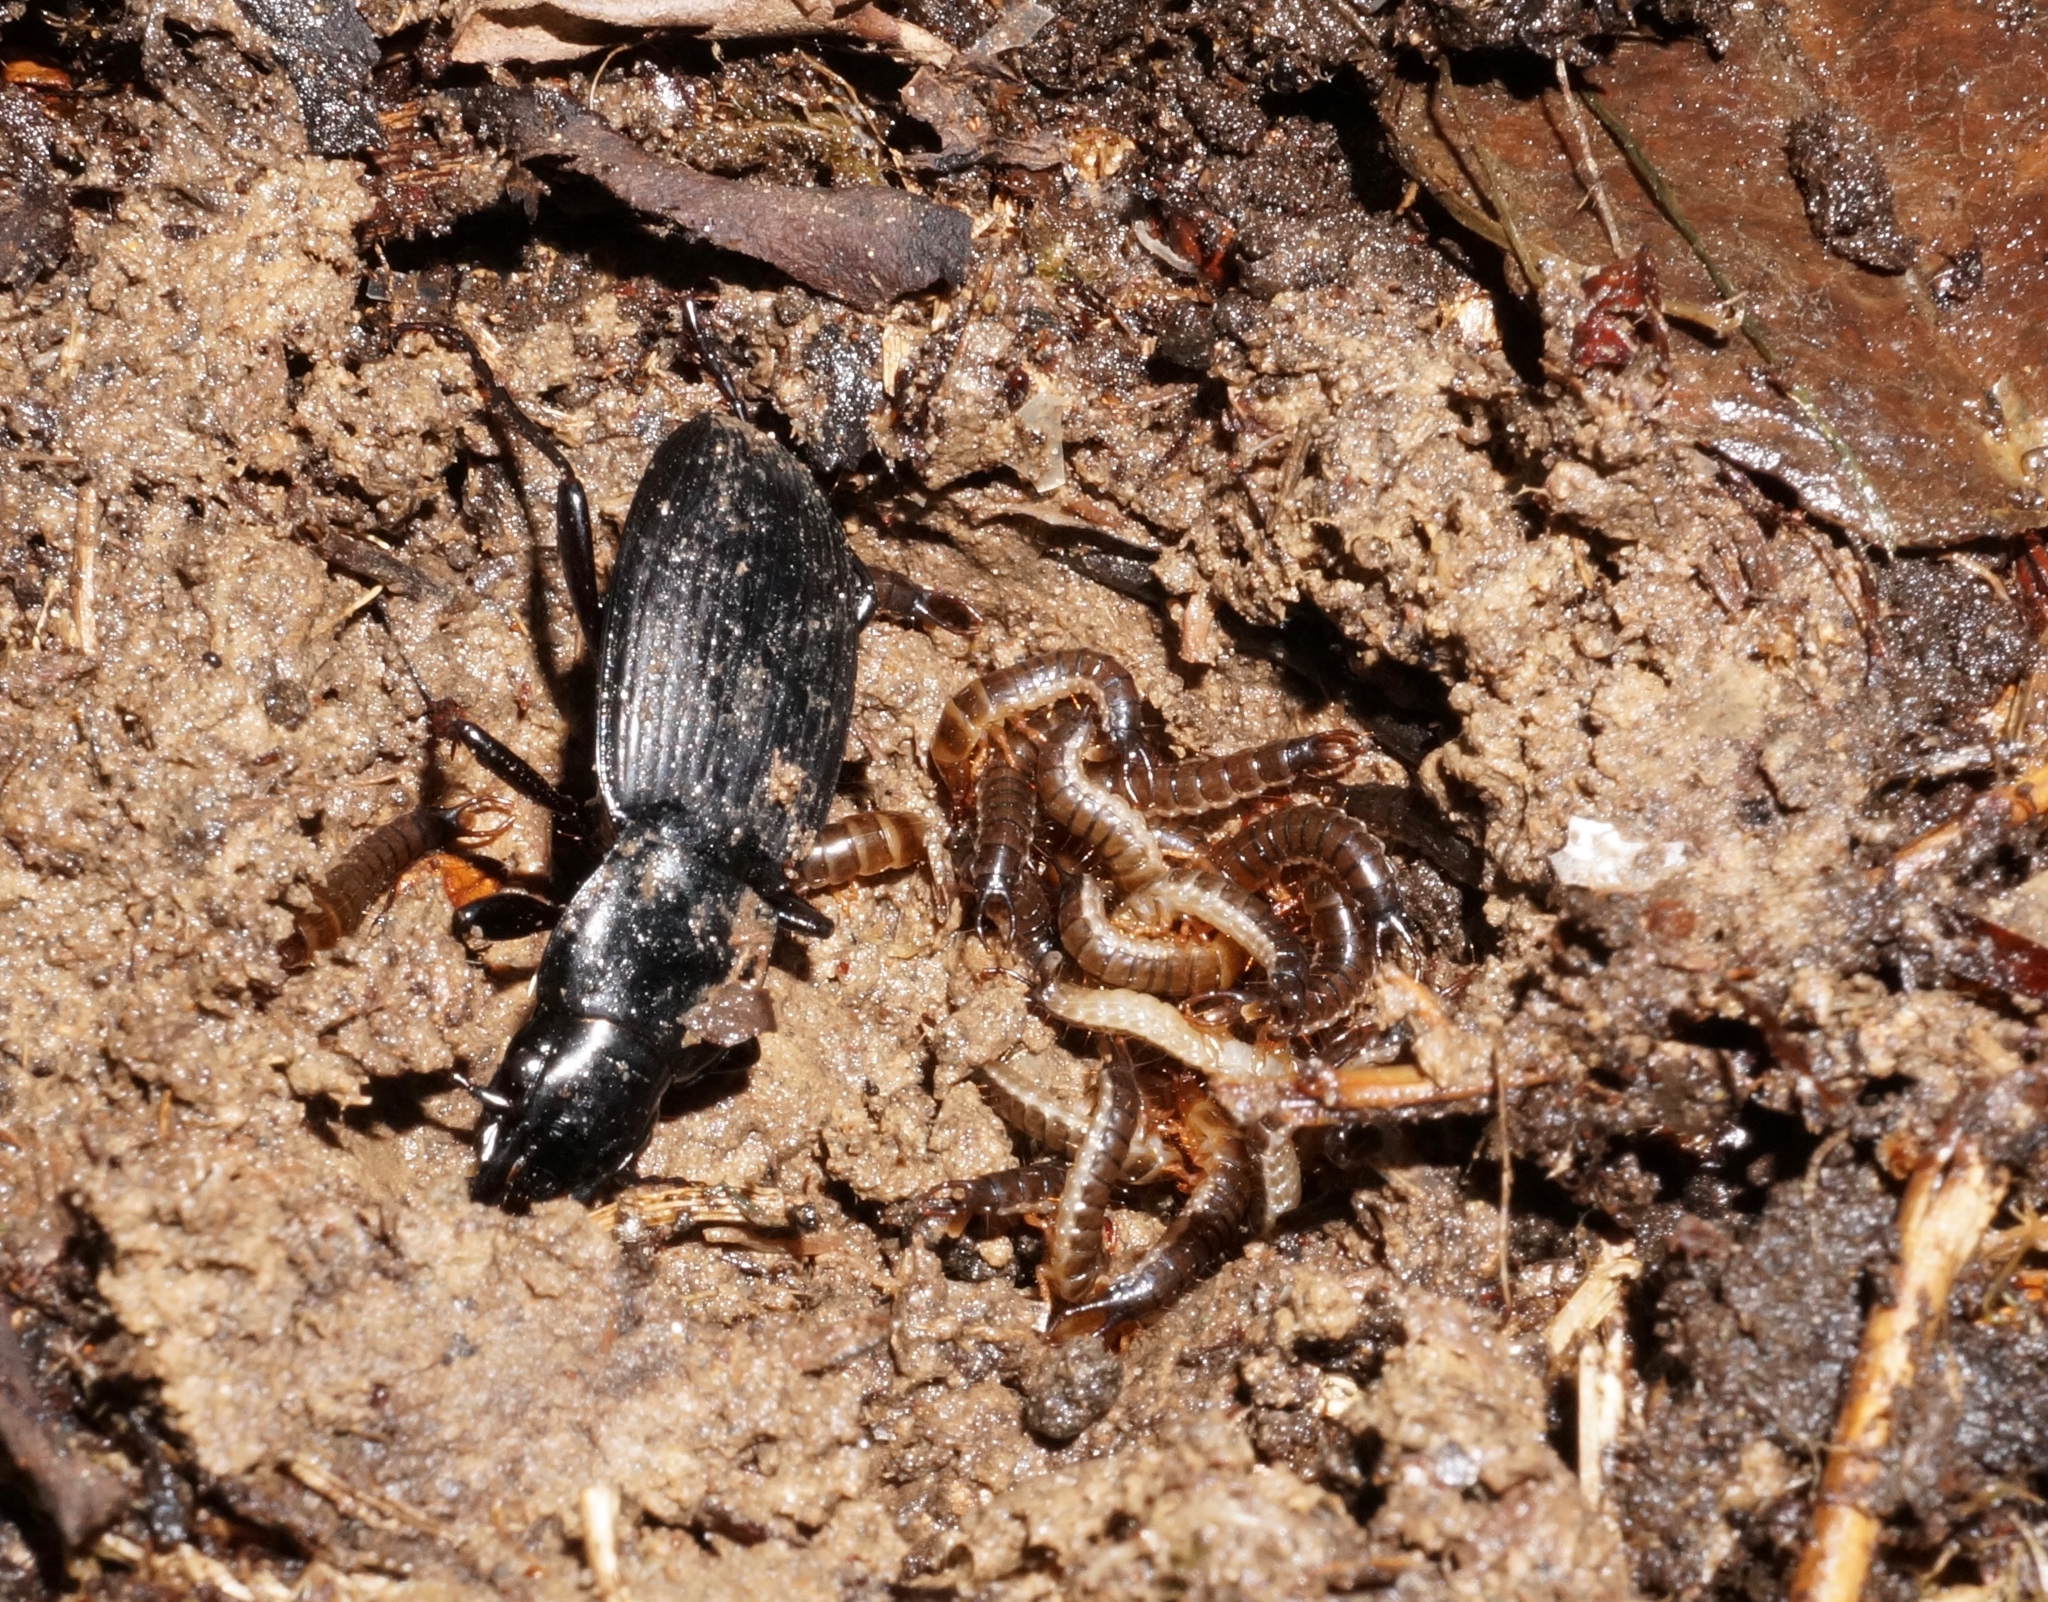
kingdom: Animalia
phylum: Arthropoda
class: Insecta
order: Coleoptera
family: Carabidae
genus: Megadromus
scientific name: Megadromus vigil
